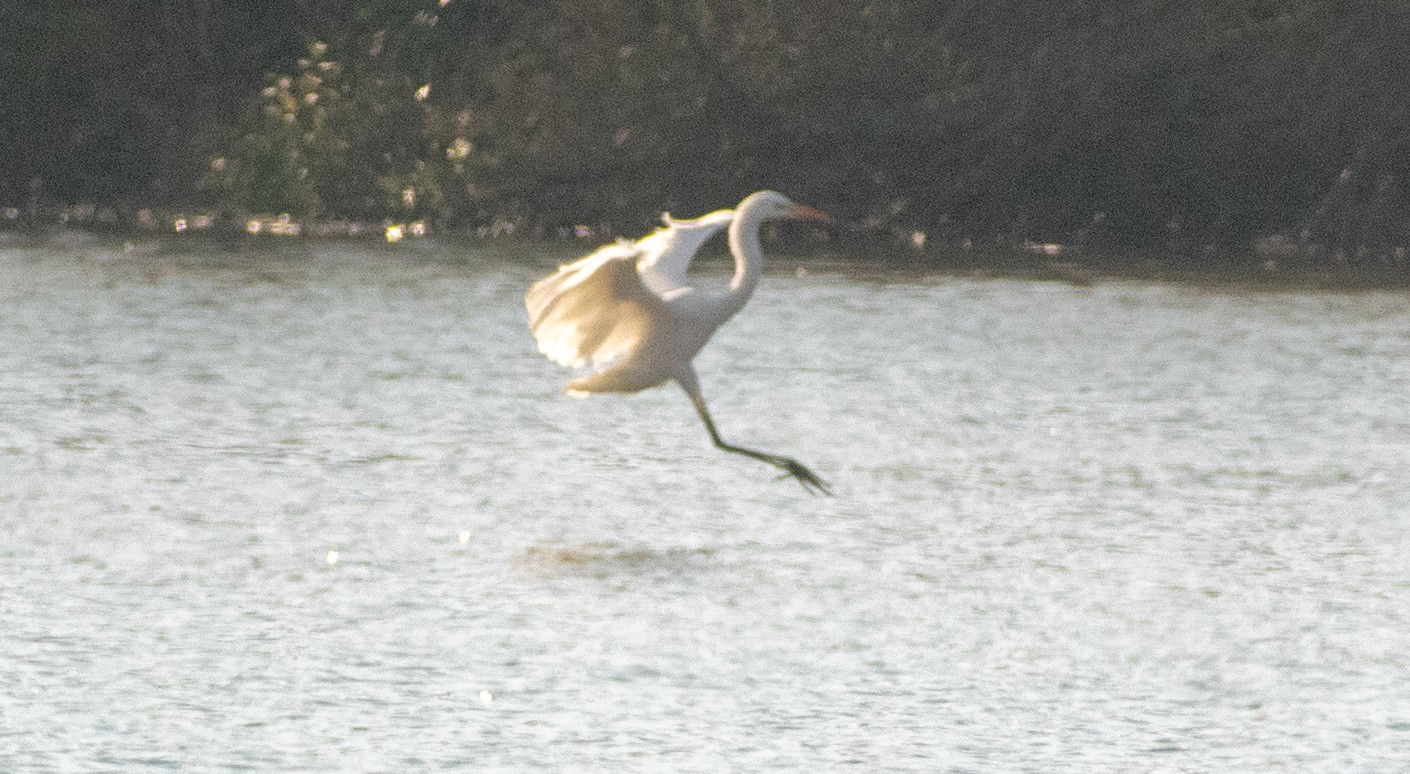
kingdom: Animalia
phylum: Chordata
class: Aves
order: Pelecaniformes
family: Ardeidae
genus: Ardea
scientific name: Ardea alba
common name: Great egret
